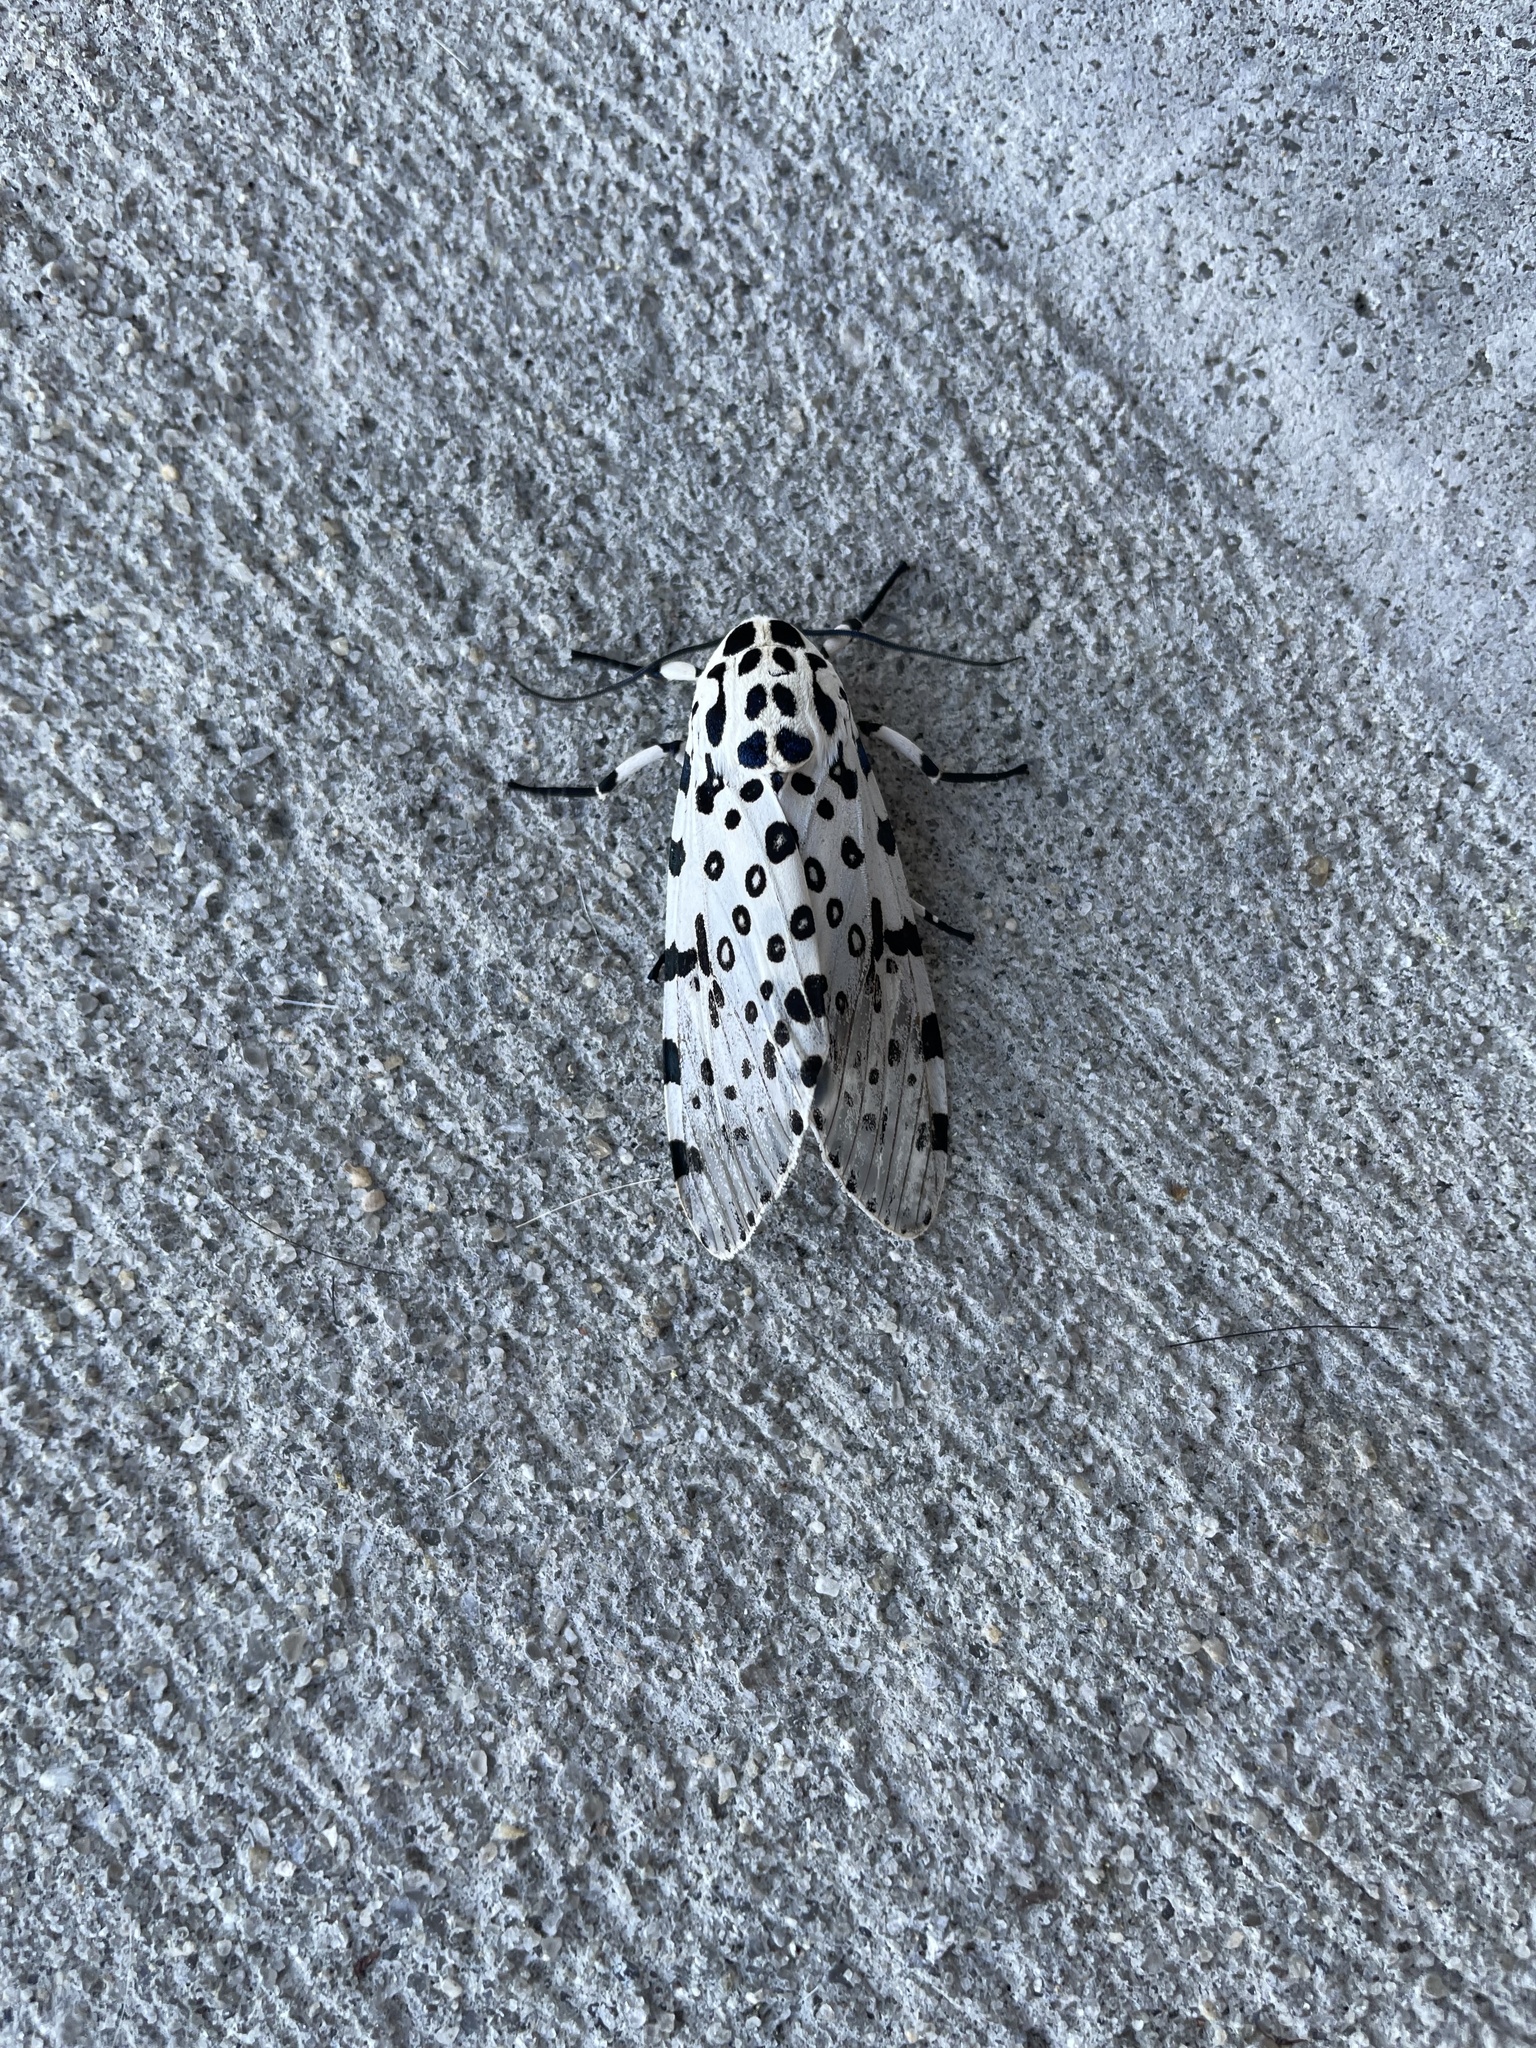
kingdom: Animalia
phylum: Arthropoda
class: Insecta
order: Lepidoptera
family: Erebidae
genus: Hypercompe
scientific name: Hypercompe scribonia
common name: Giant leopard moth
